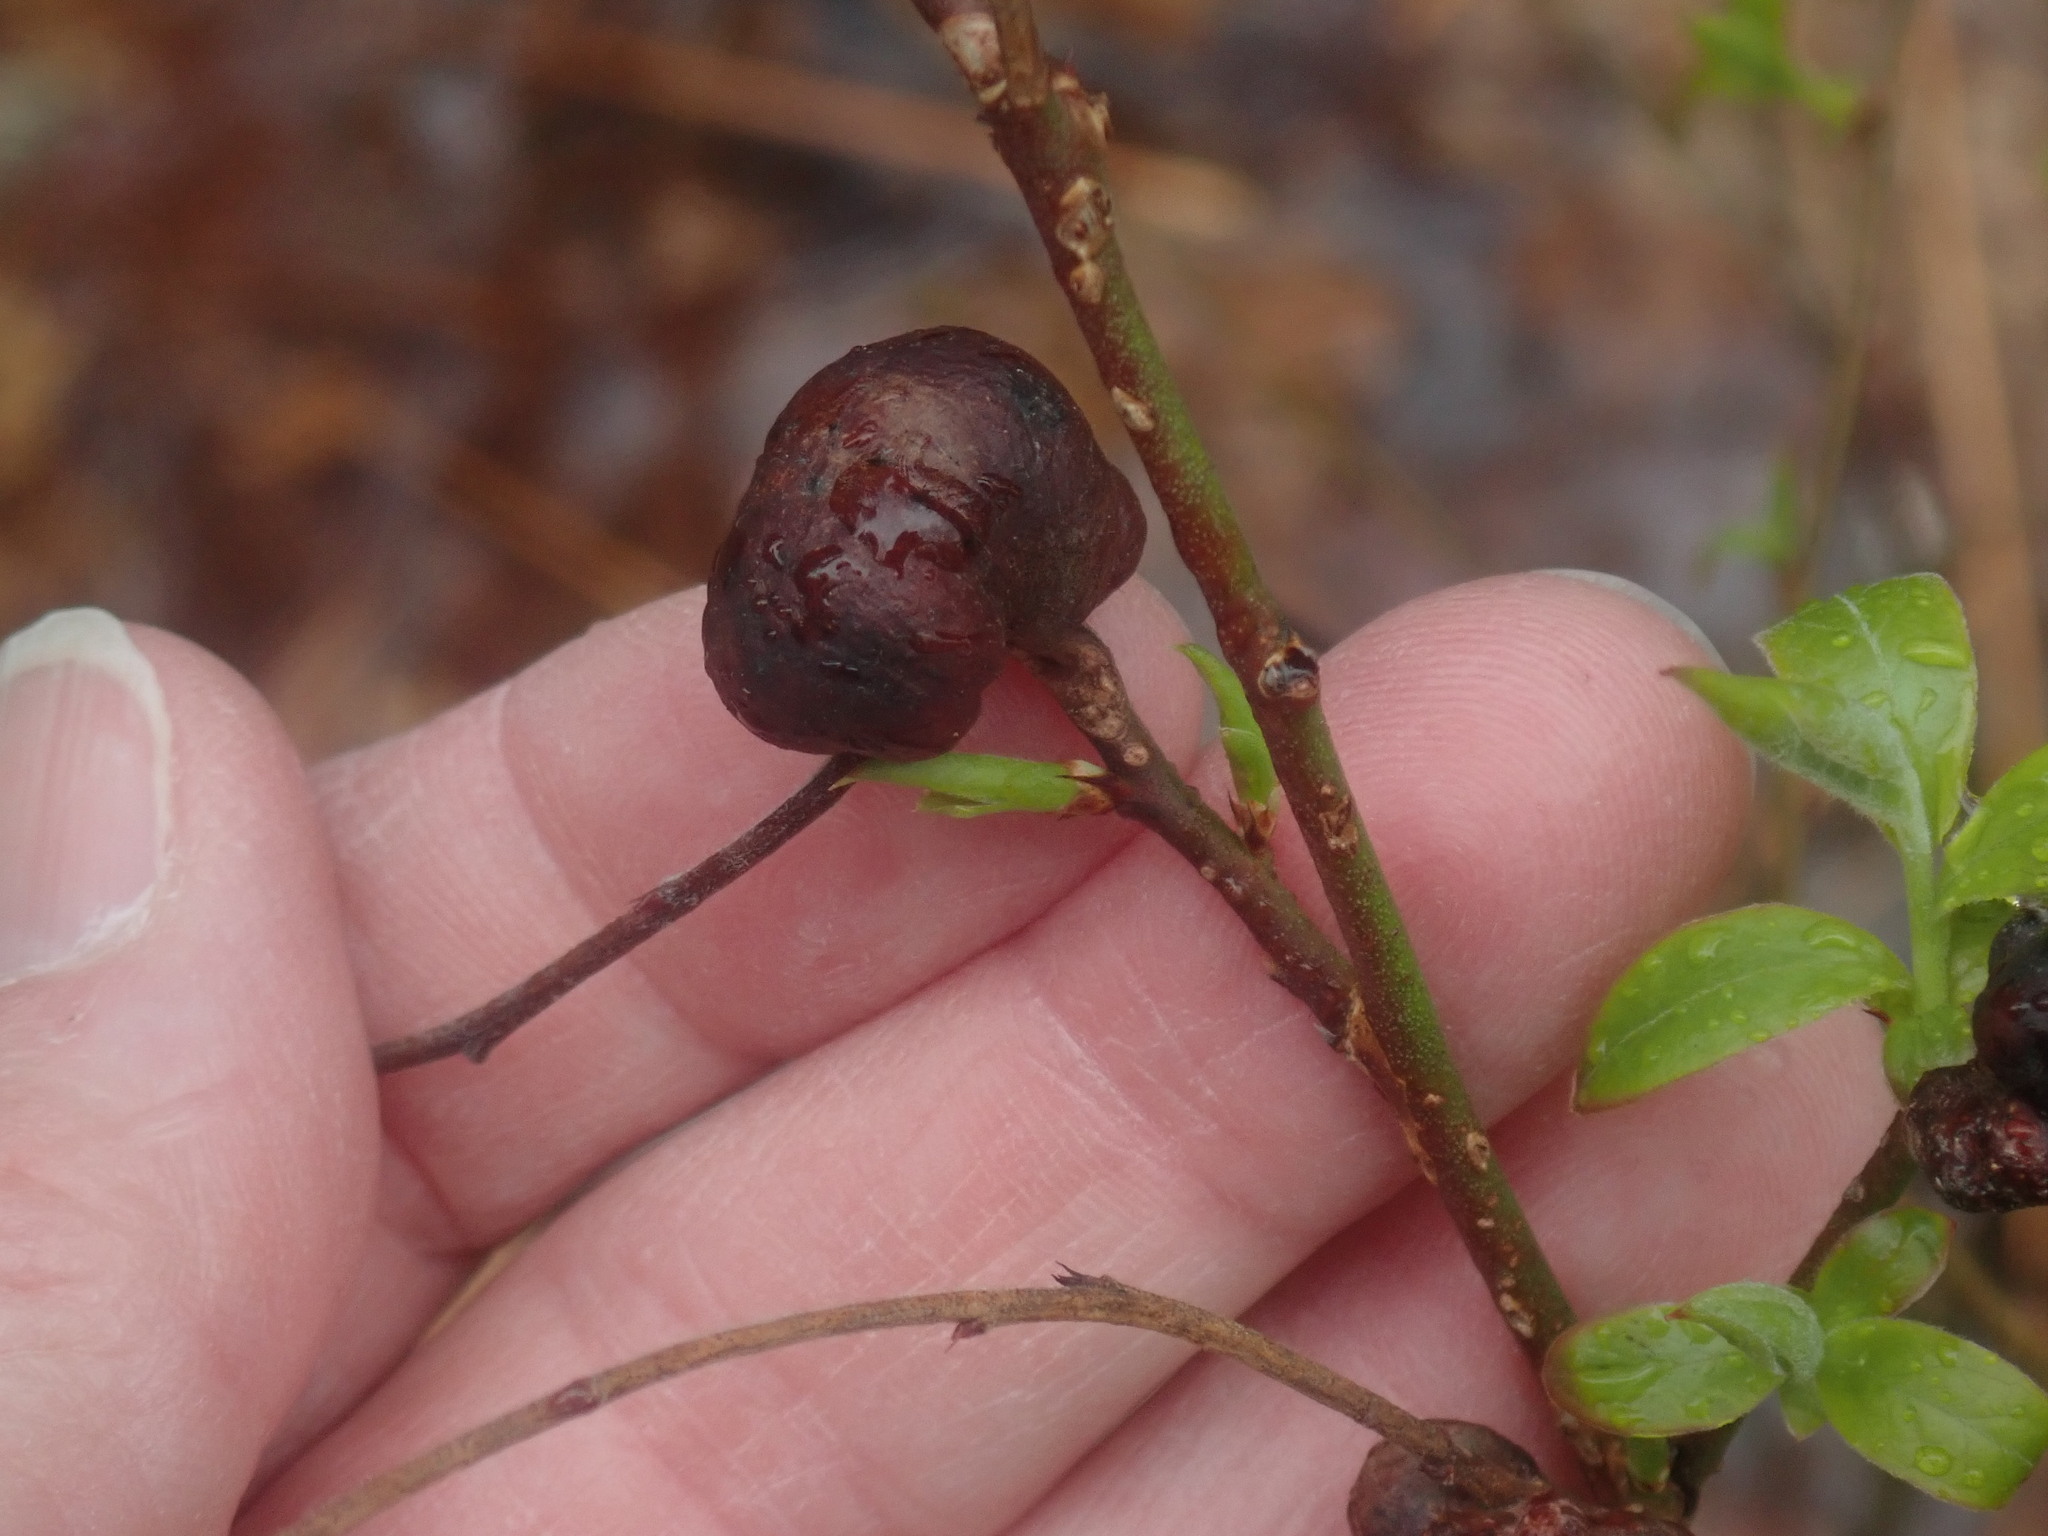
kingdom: Animalia
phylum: Arthropoda
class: Insecta
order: Hymenoptera
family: Pteromalidae
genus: Hemadas
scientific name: Hemadas nubilipennis
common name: Blueberry stem gall wasp
